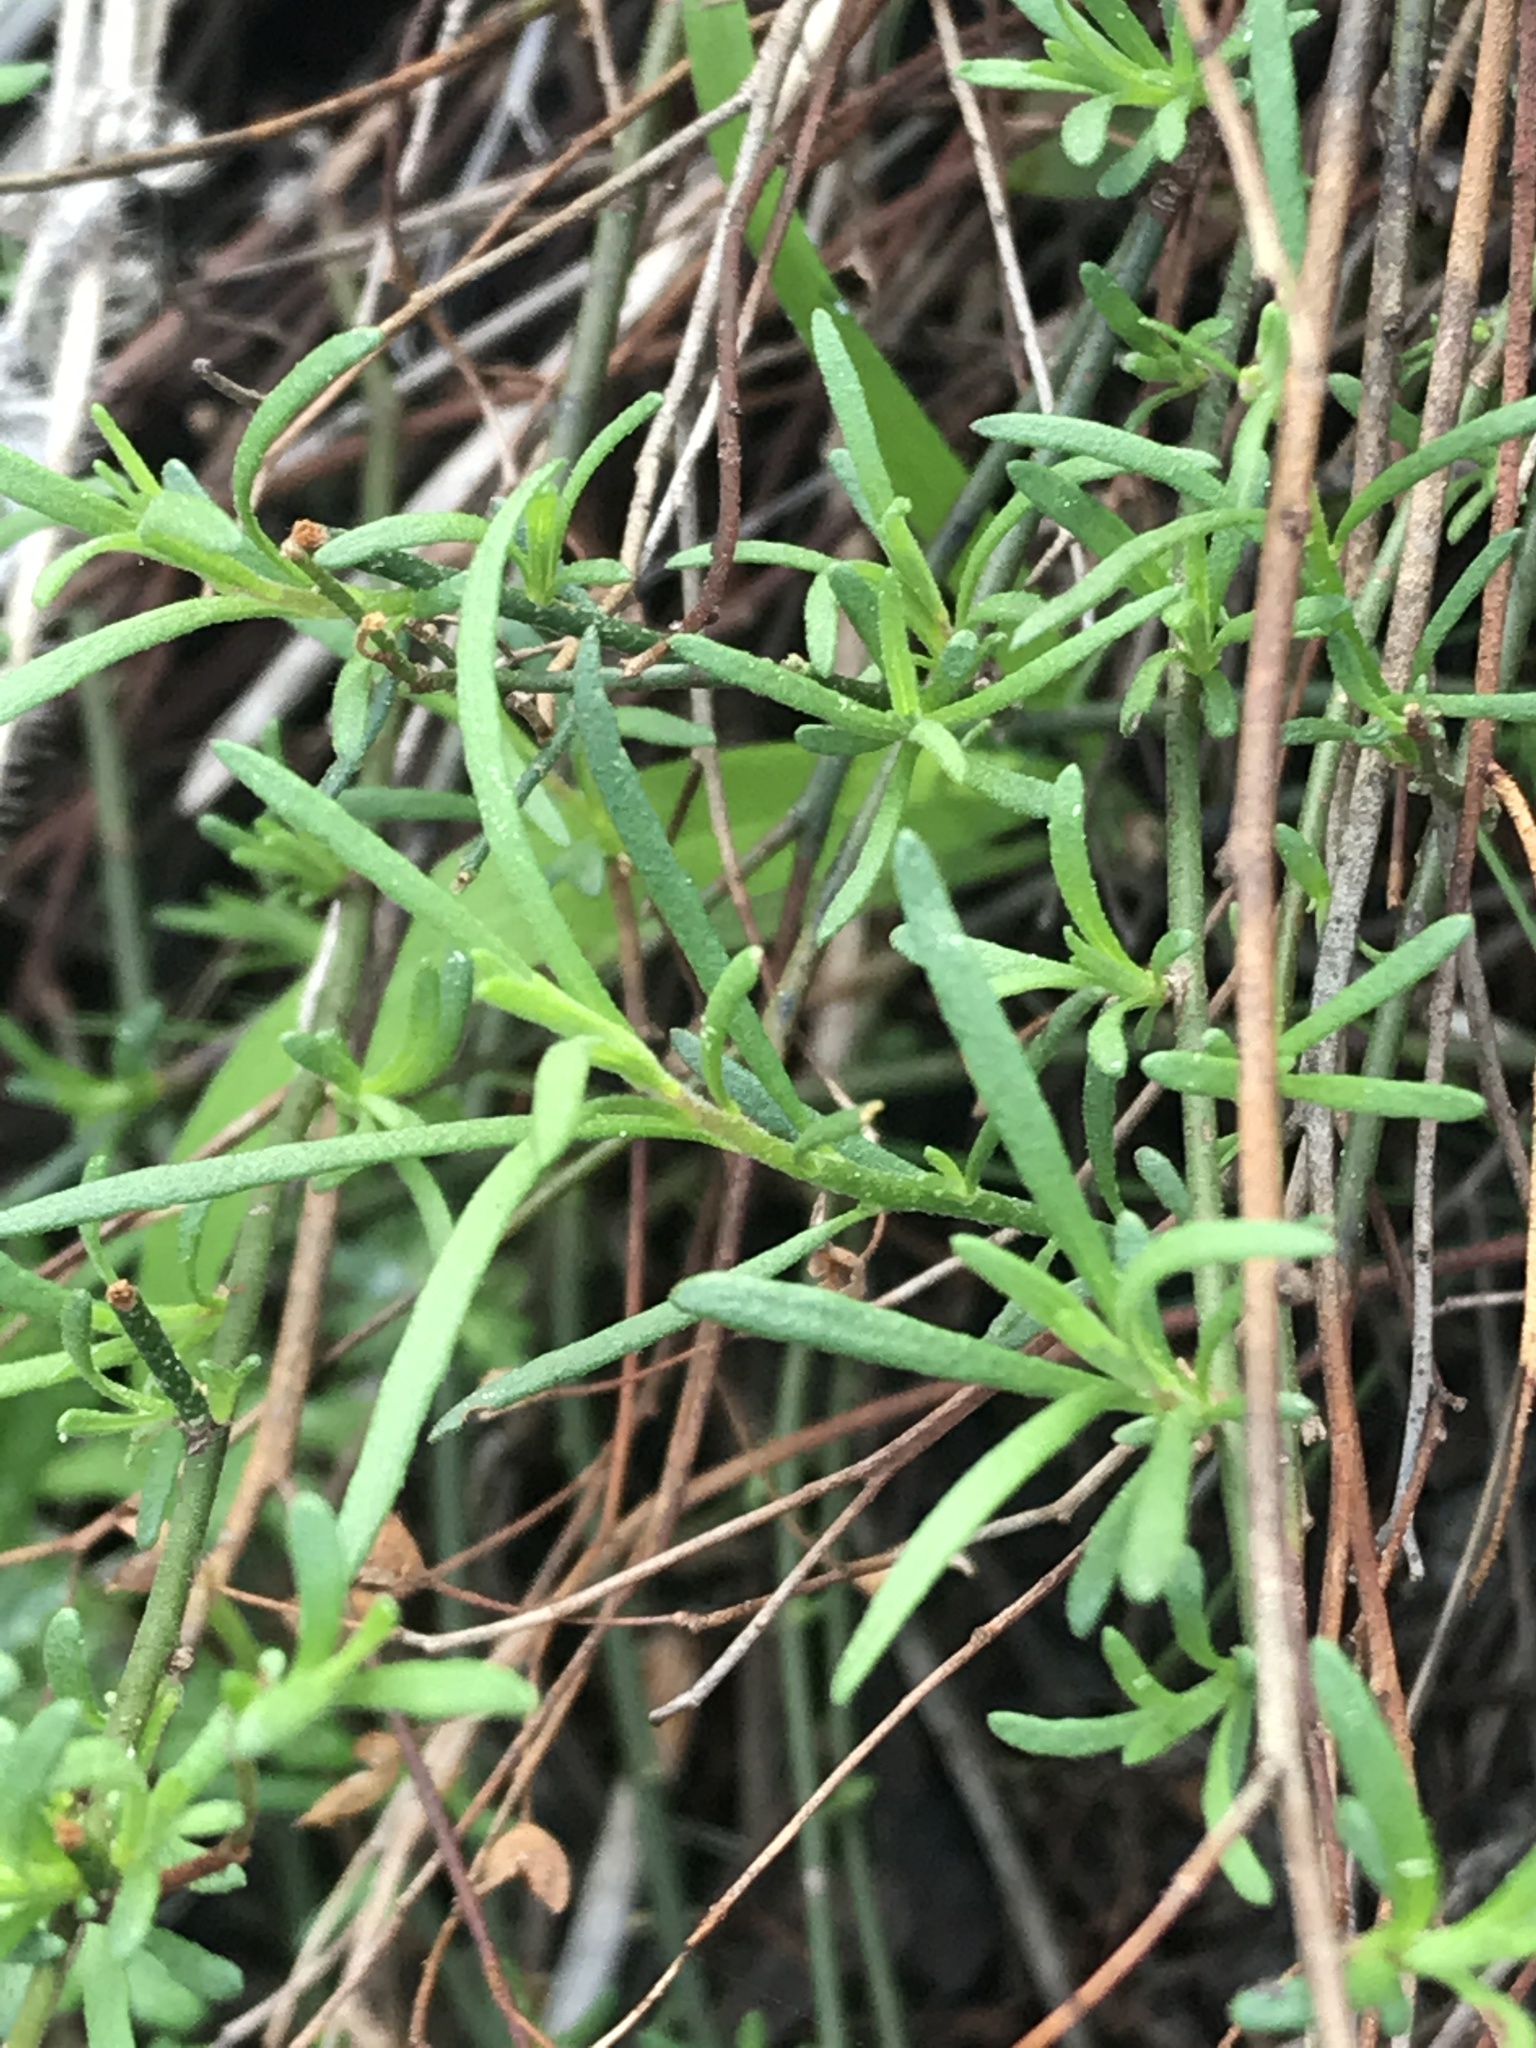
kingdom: Plantae
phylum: Tracheophyta
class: Magnoliopsida
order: Malvales
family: Cistaceae
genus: Crocanthemum
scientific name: Crocanthemum scoparium
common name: Broom-rose
